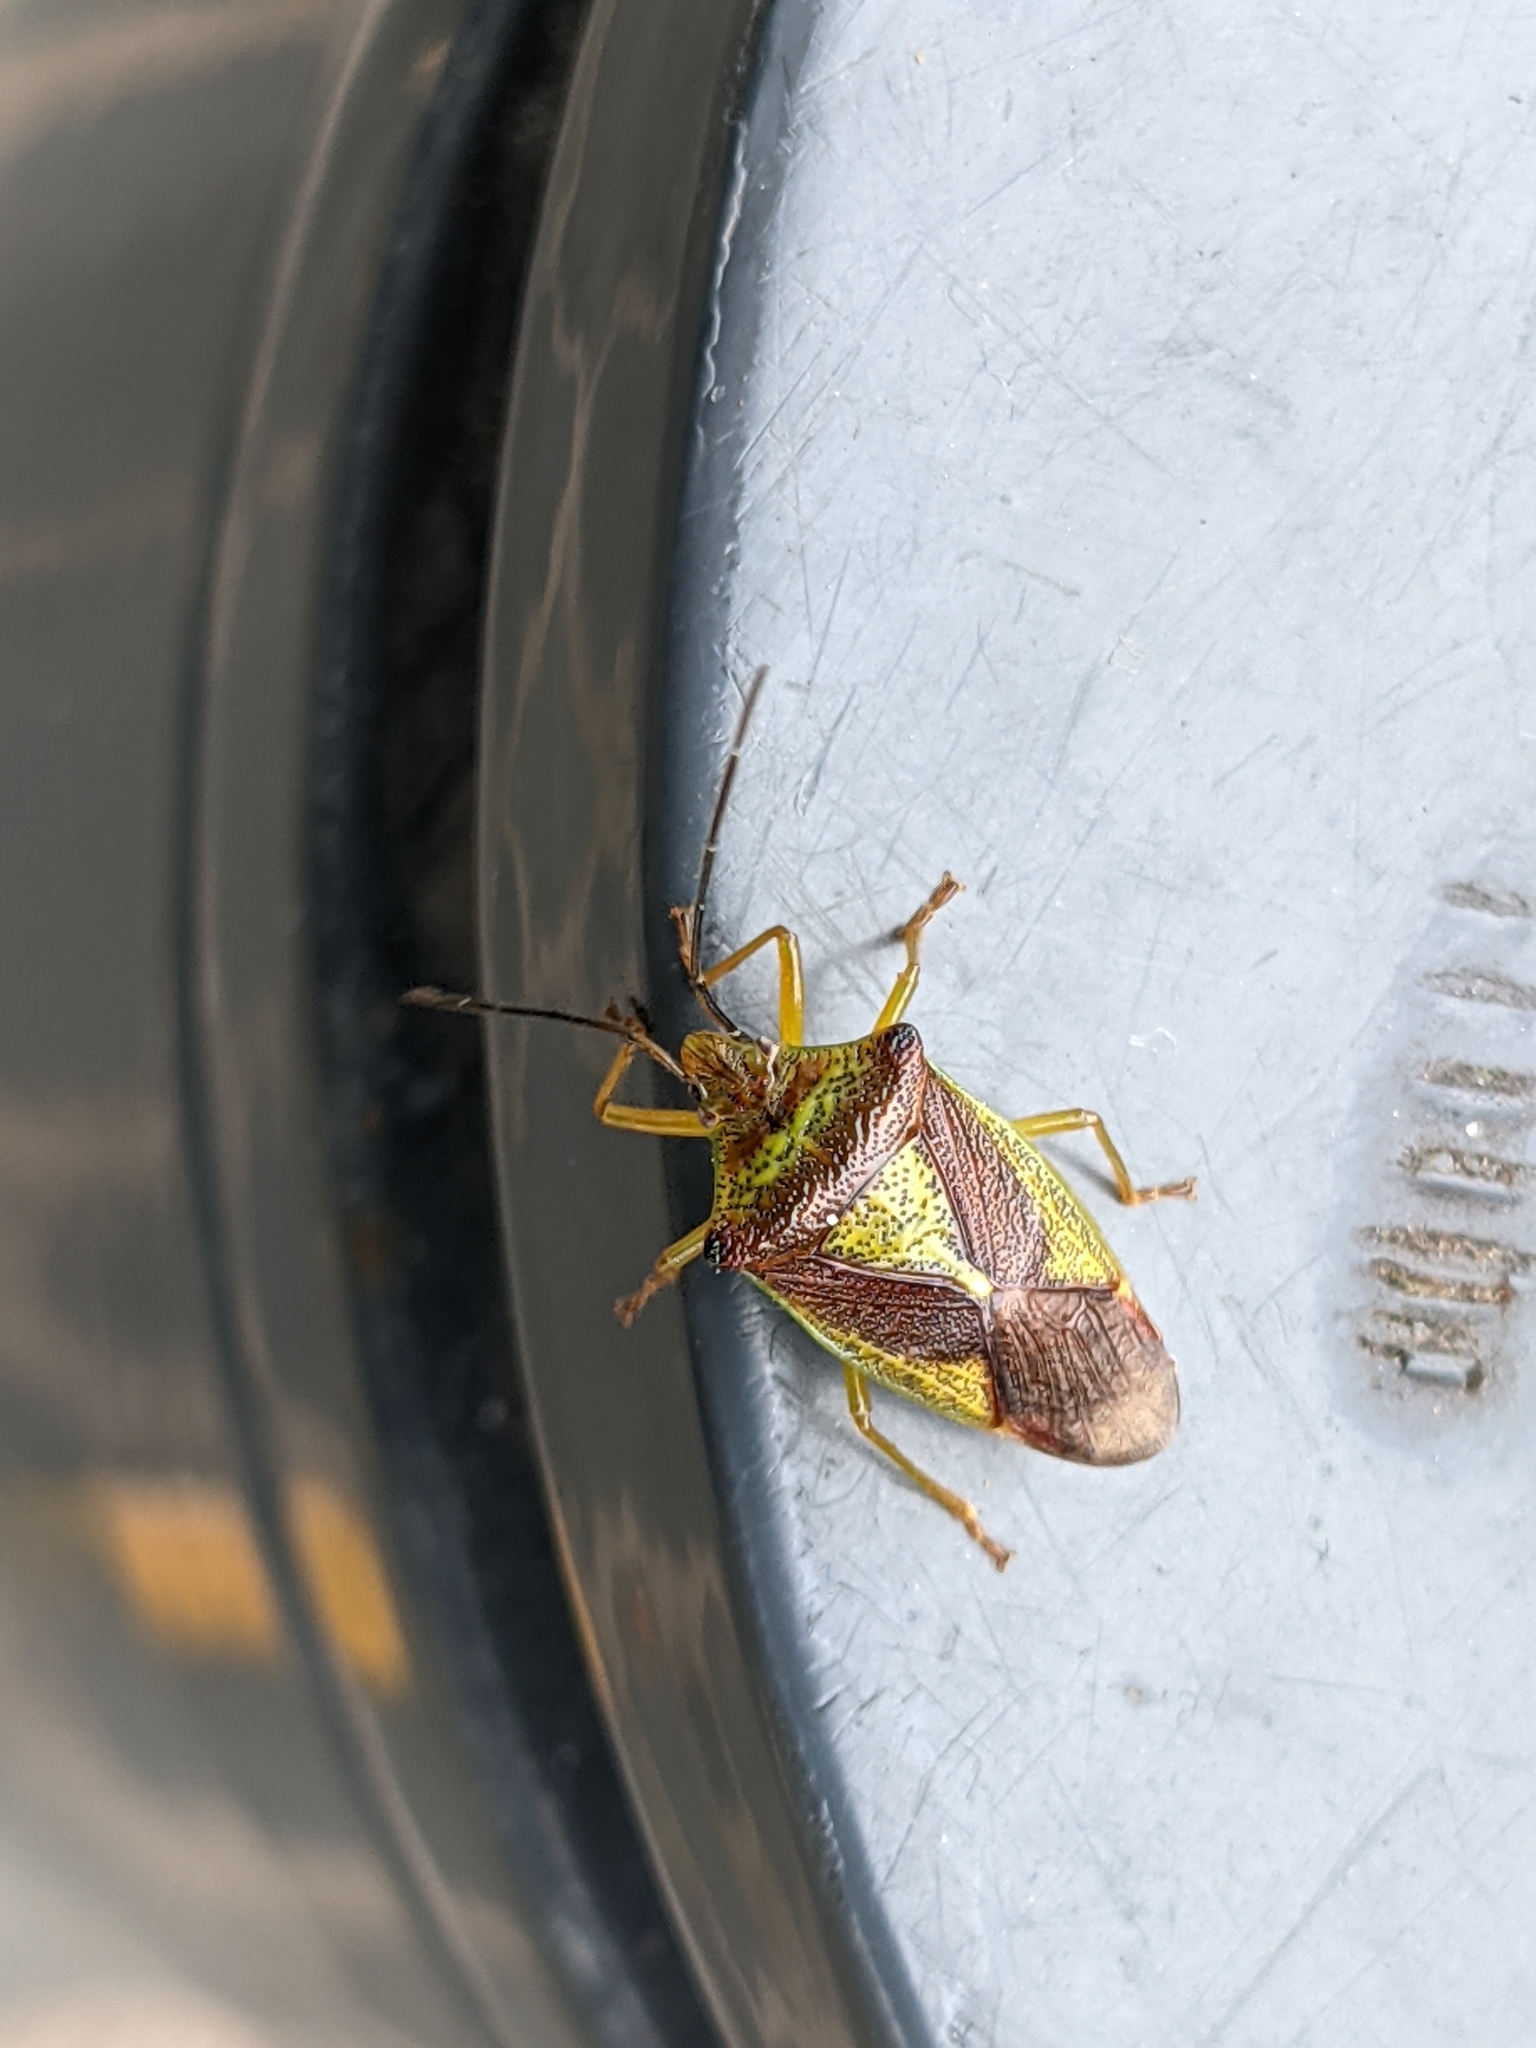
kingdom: Animalia
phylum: Arthropoda
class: Insecta
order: Hemiptera
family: Acanthosomatidae
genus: Acanthosoma
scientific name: Acanthosoma haemorrhoidale
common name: Hawthorn shieldbug
